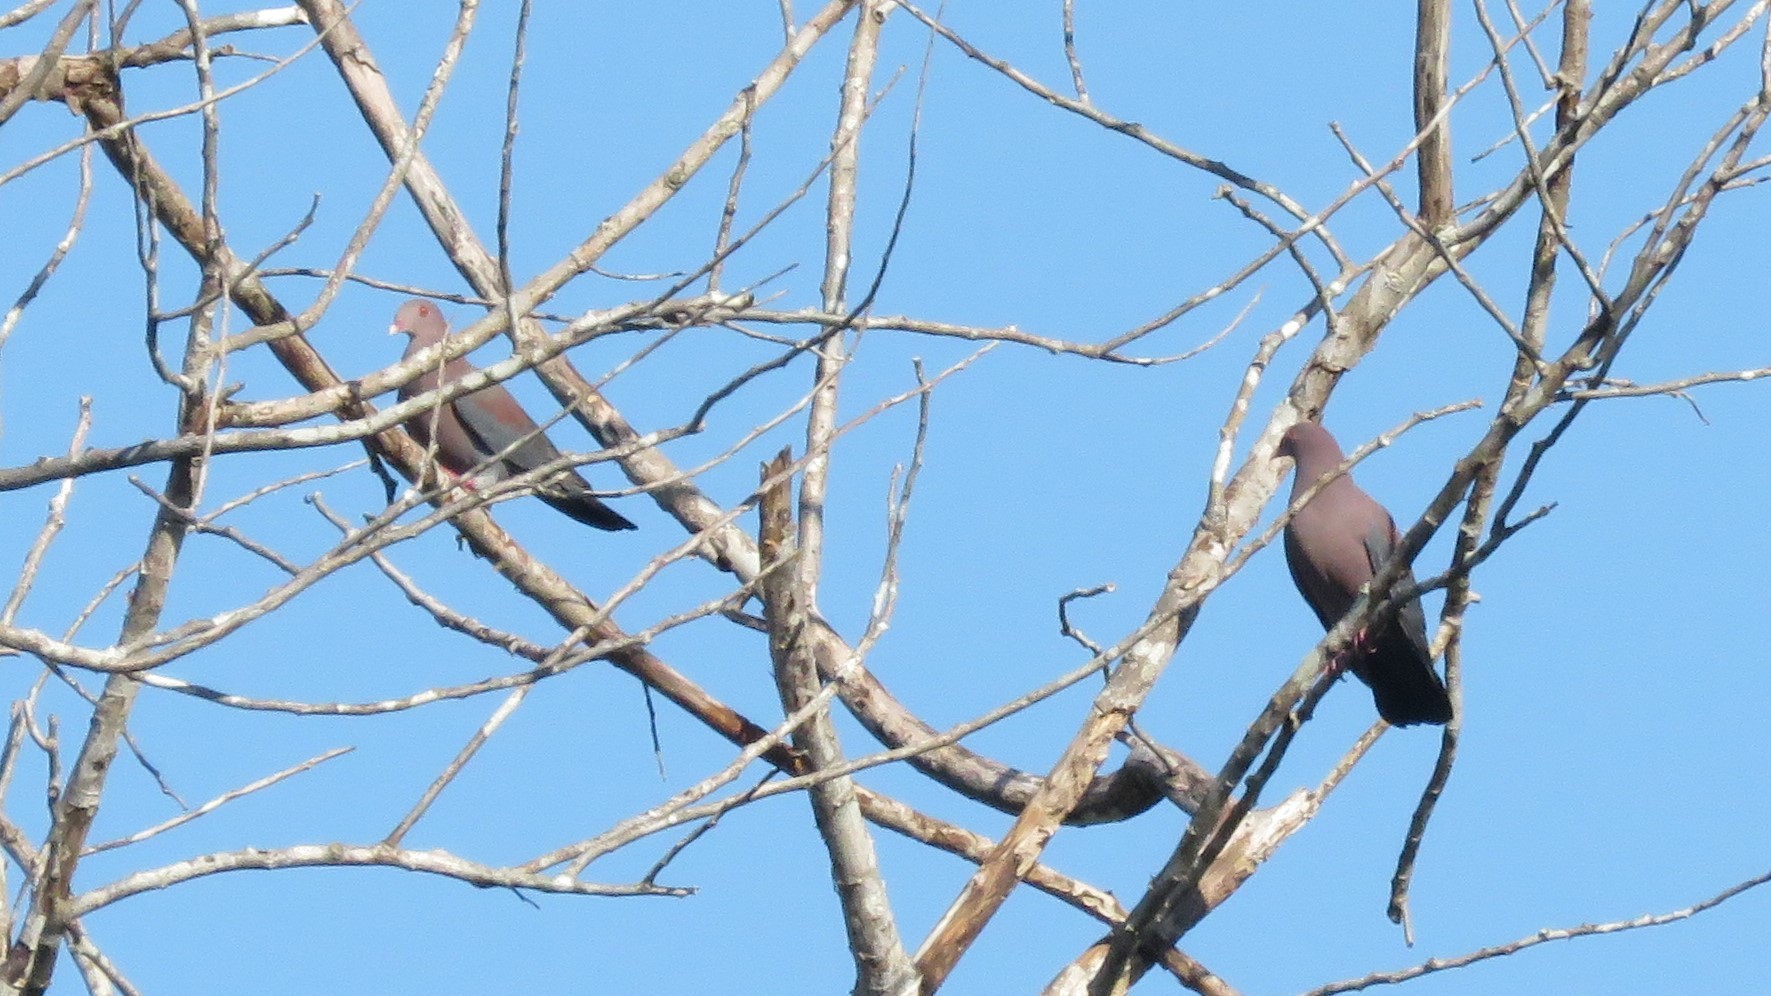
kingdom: Animalia
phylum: Chordata
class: Aves
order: Columbiformes
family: Columbidae
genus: Patagioenas
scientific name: Patagioenas flavirostris
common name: Red-billed pigeon
